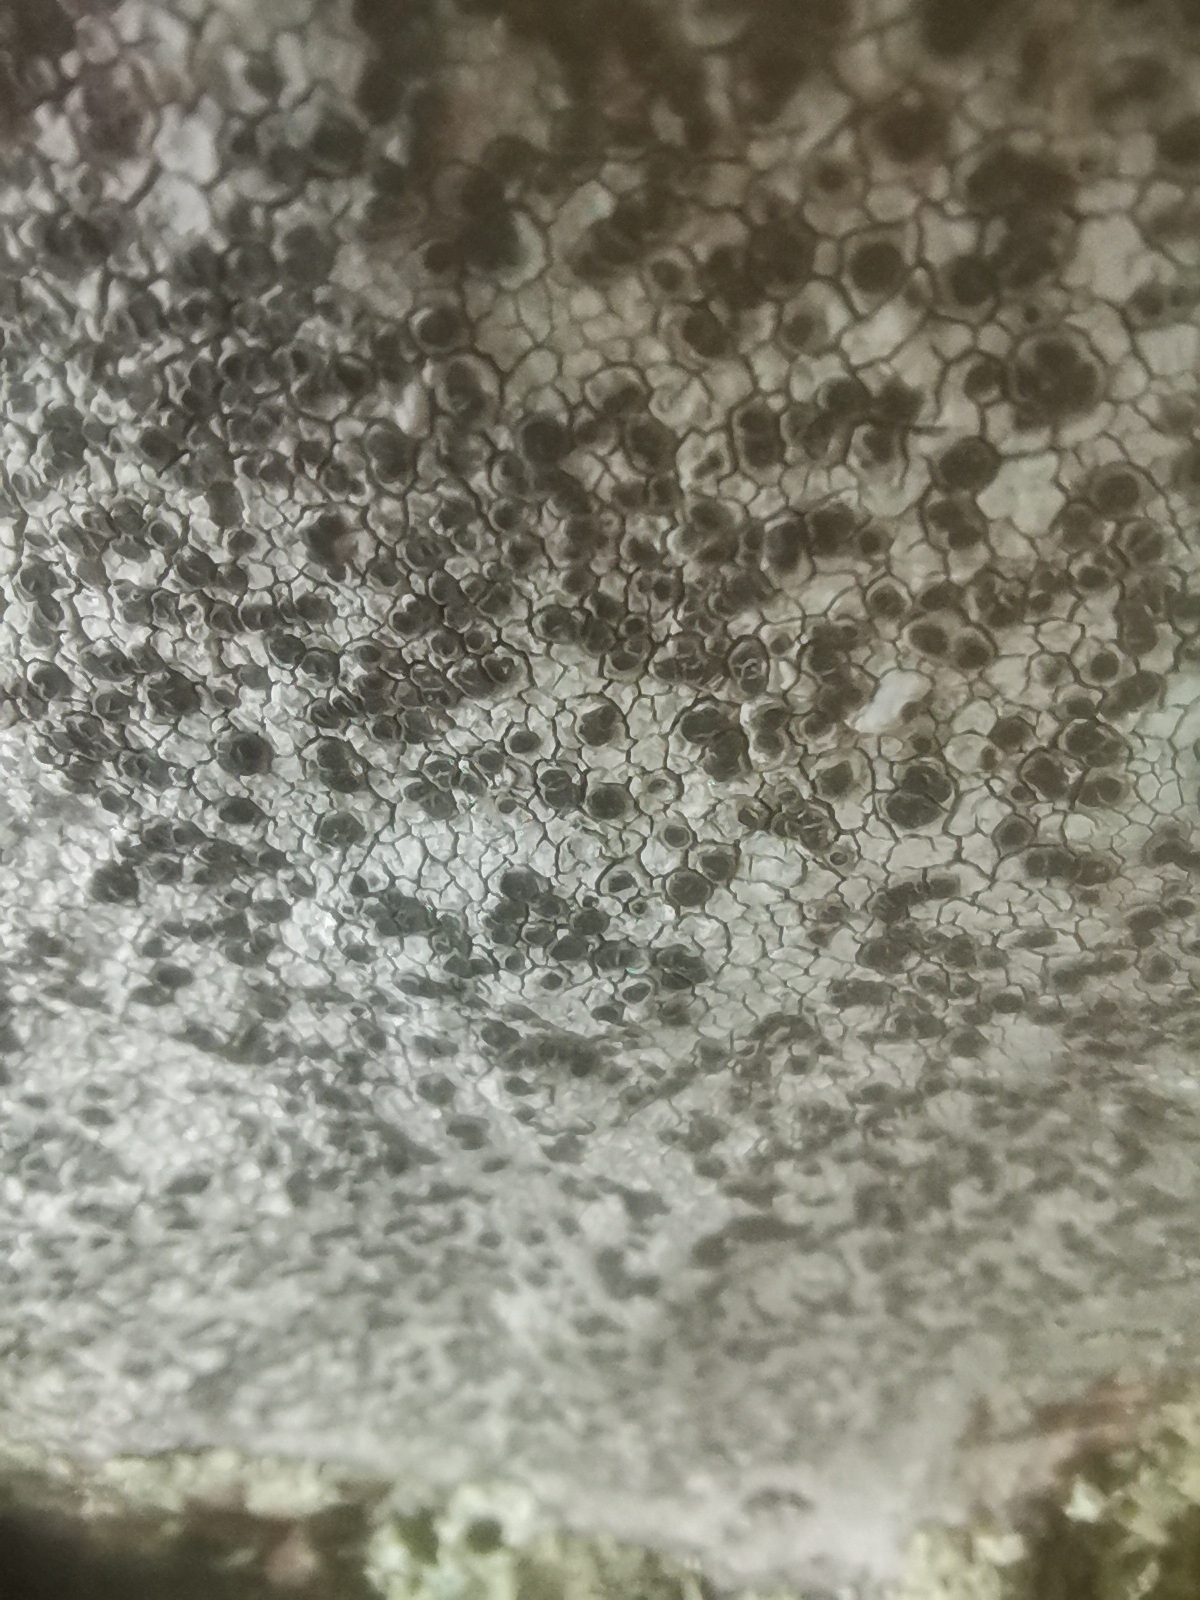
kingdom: Fungi
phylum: Ascomycota
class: Lecanoromycetes
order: Pertusariales
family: Megasporaceae
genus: Aspicilia
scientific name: Aspicilia cinerea
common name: Cinder lichen
